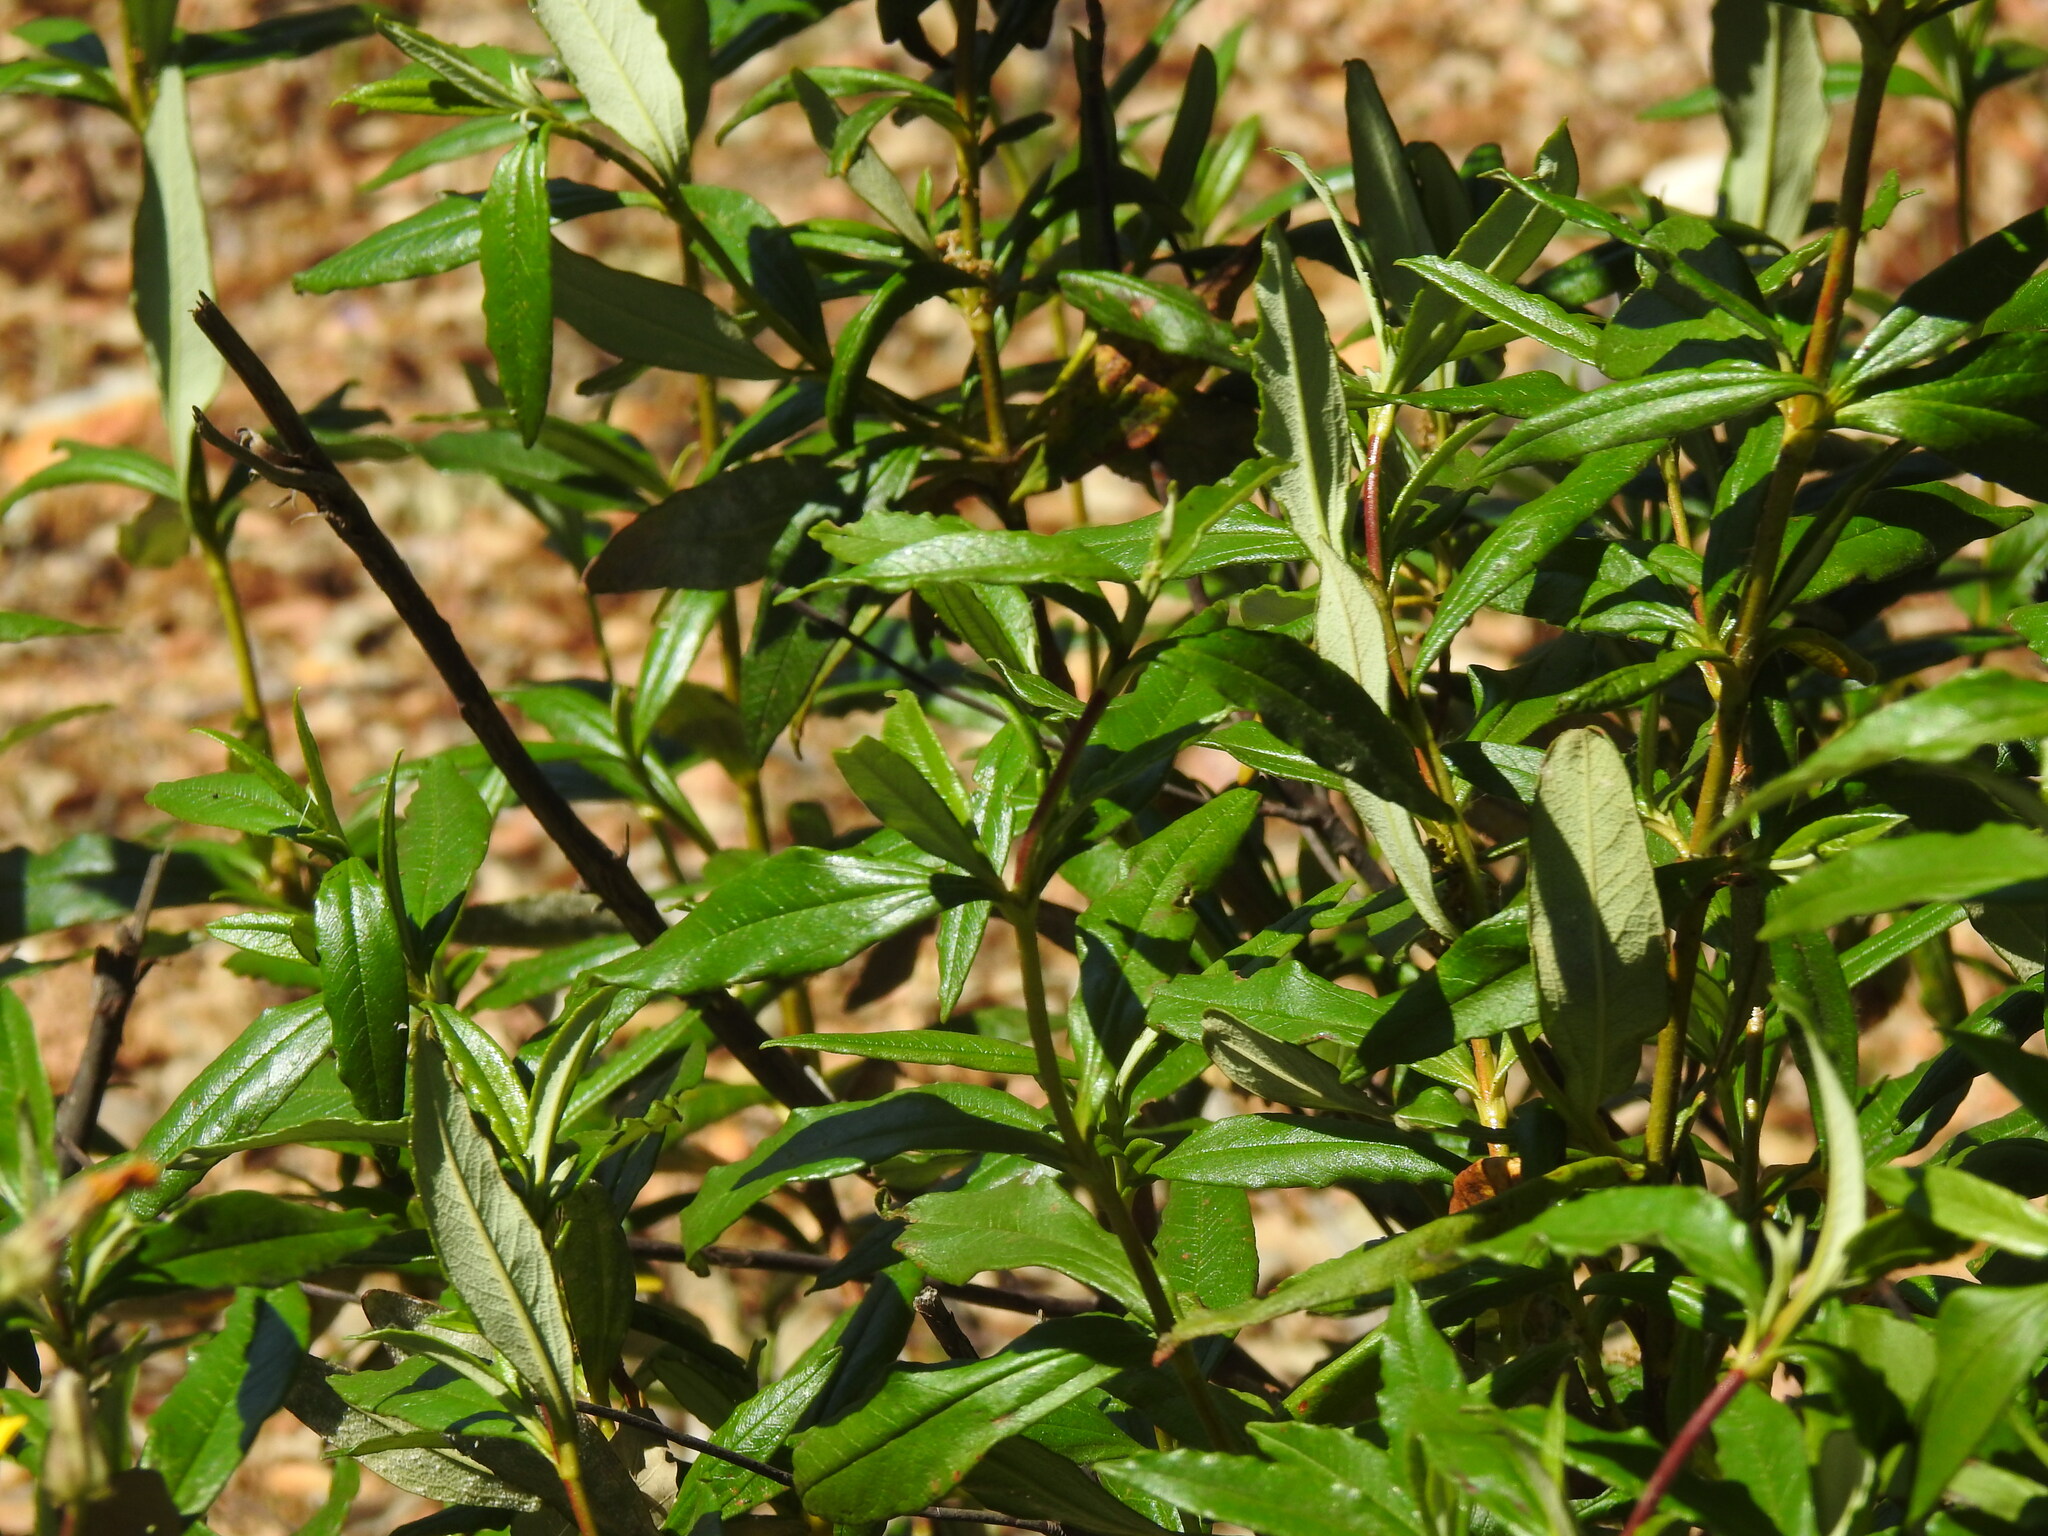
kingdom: Plantae
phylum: Tracheophyta
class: Magnoliopsida
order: Malvales
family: Cistaceae
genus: Cistus
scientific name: Cistus ladanifer
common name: Common gum cistus
